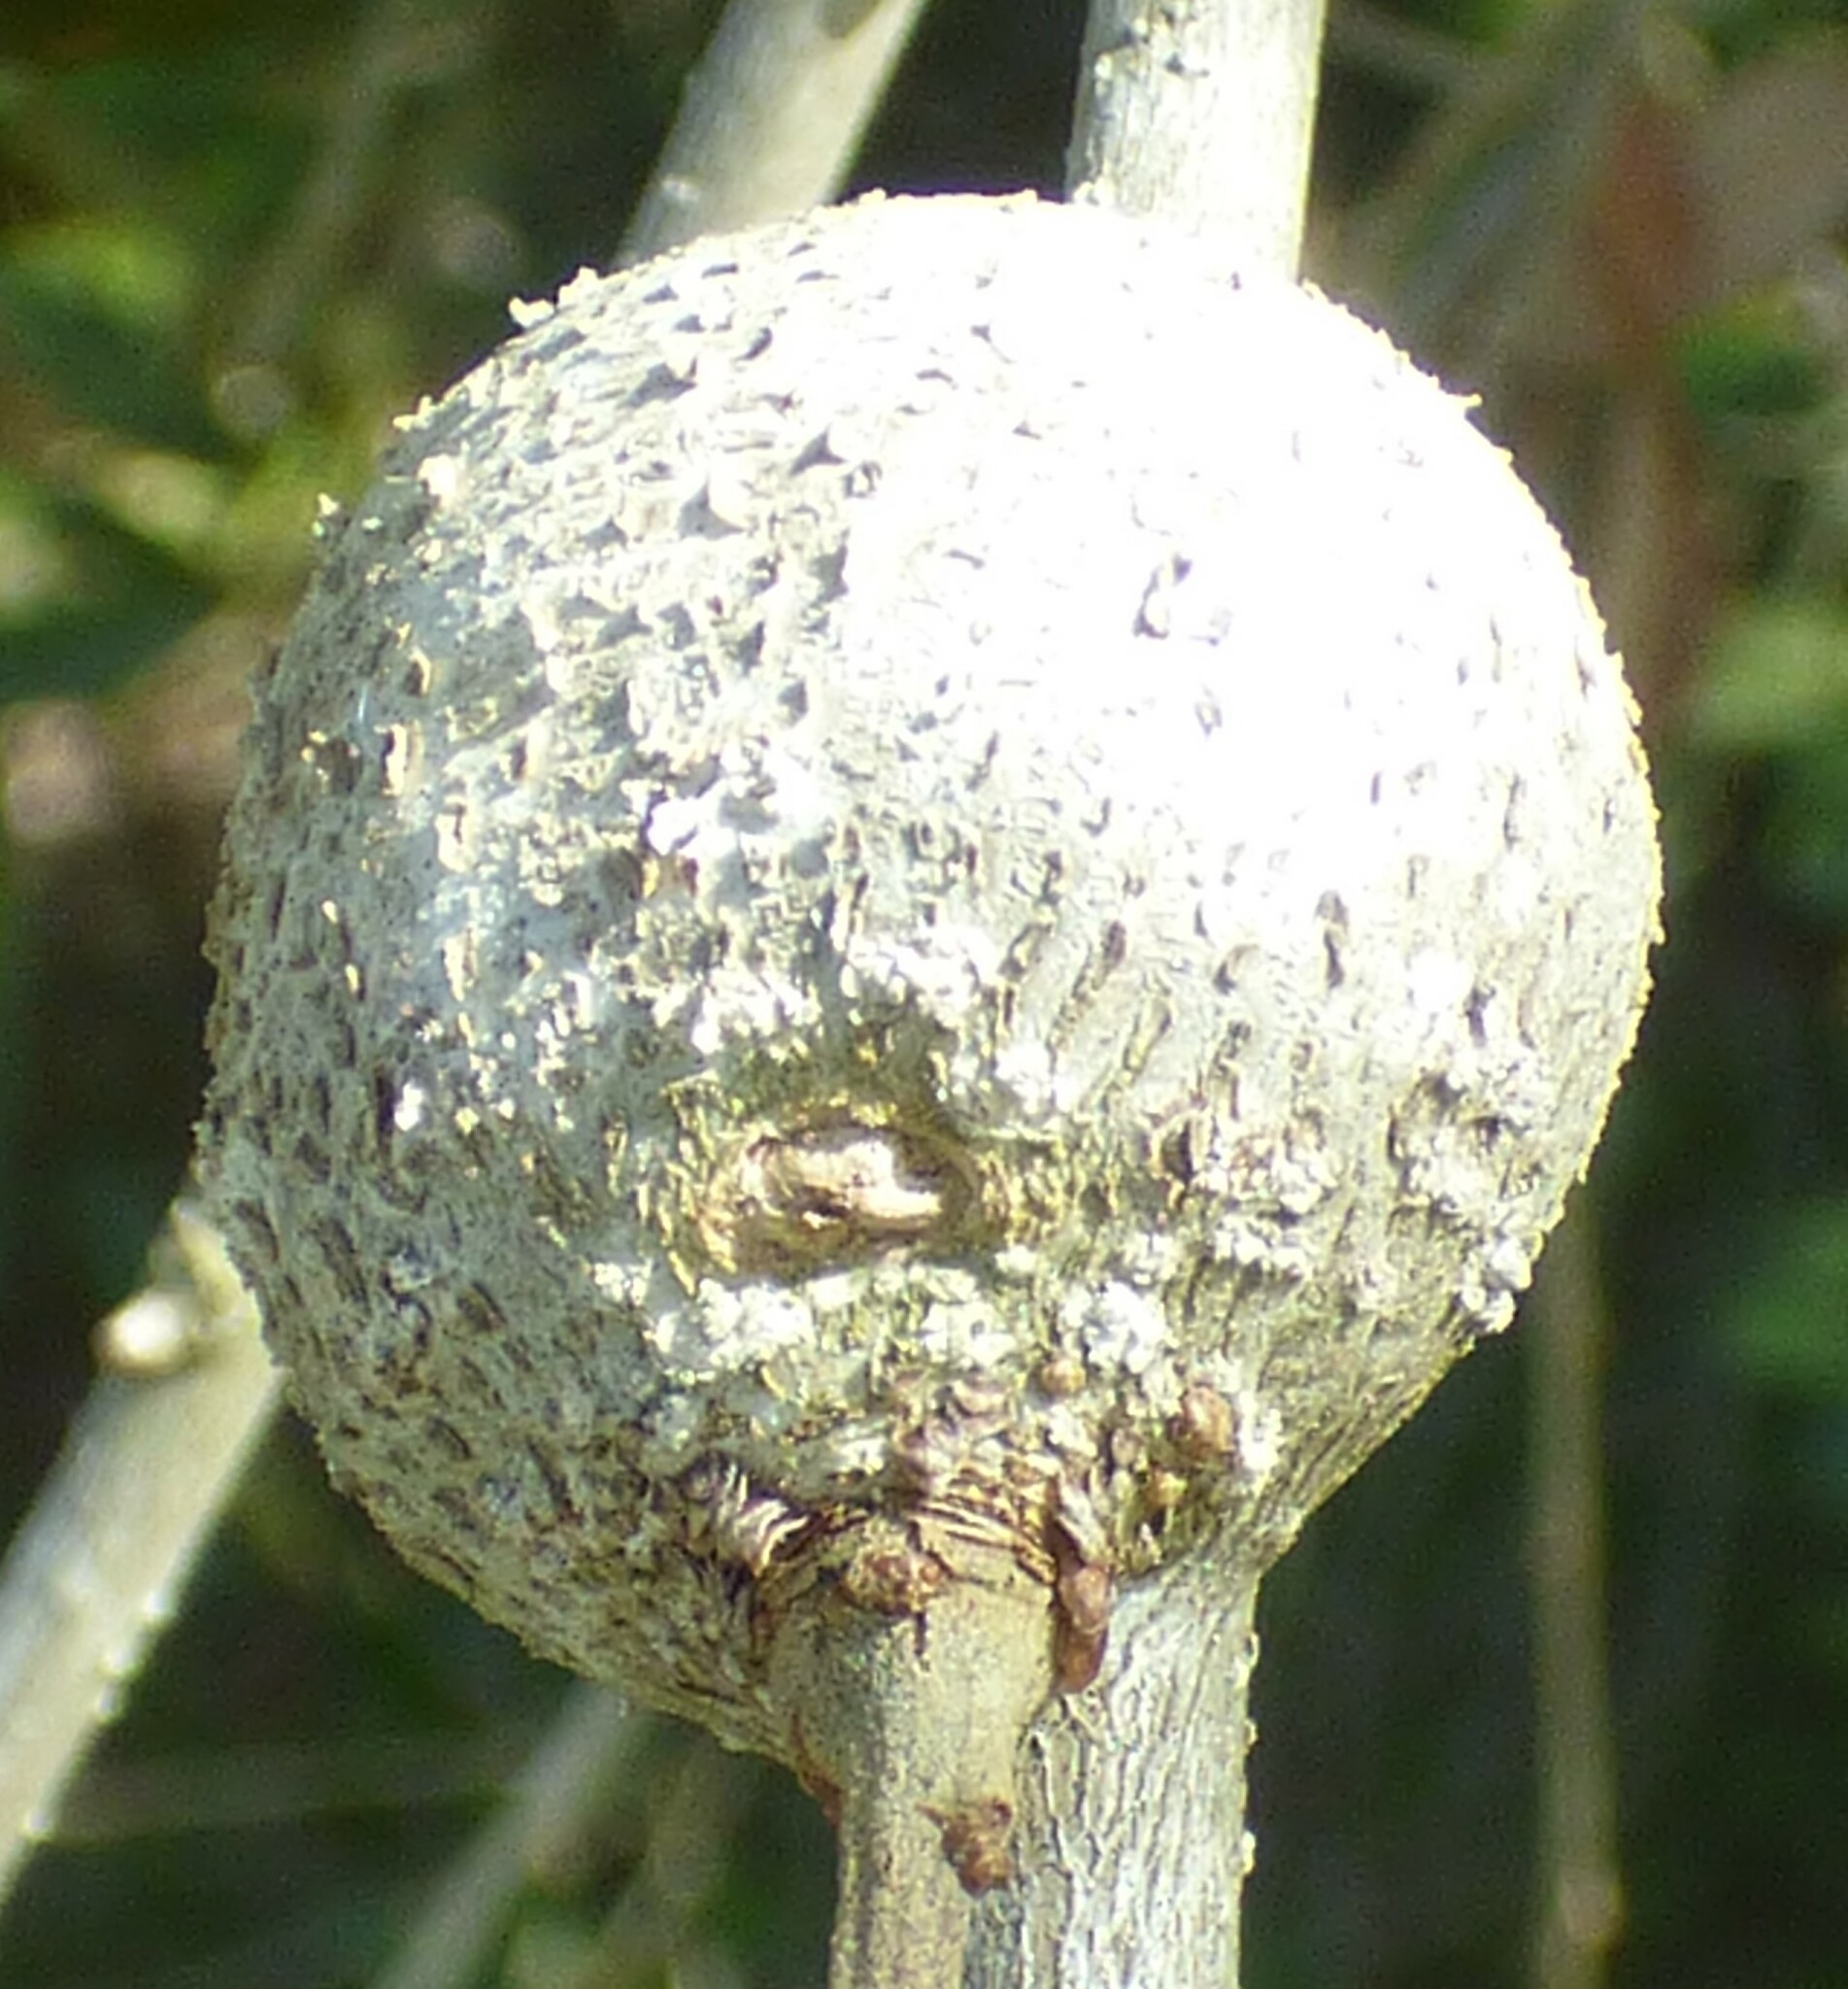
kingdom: Animalia
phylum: Arthropoda
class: Insecta
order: Hymenoptera
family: Cynipidae
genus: Callirhytis
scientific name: Callirhytis
